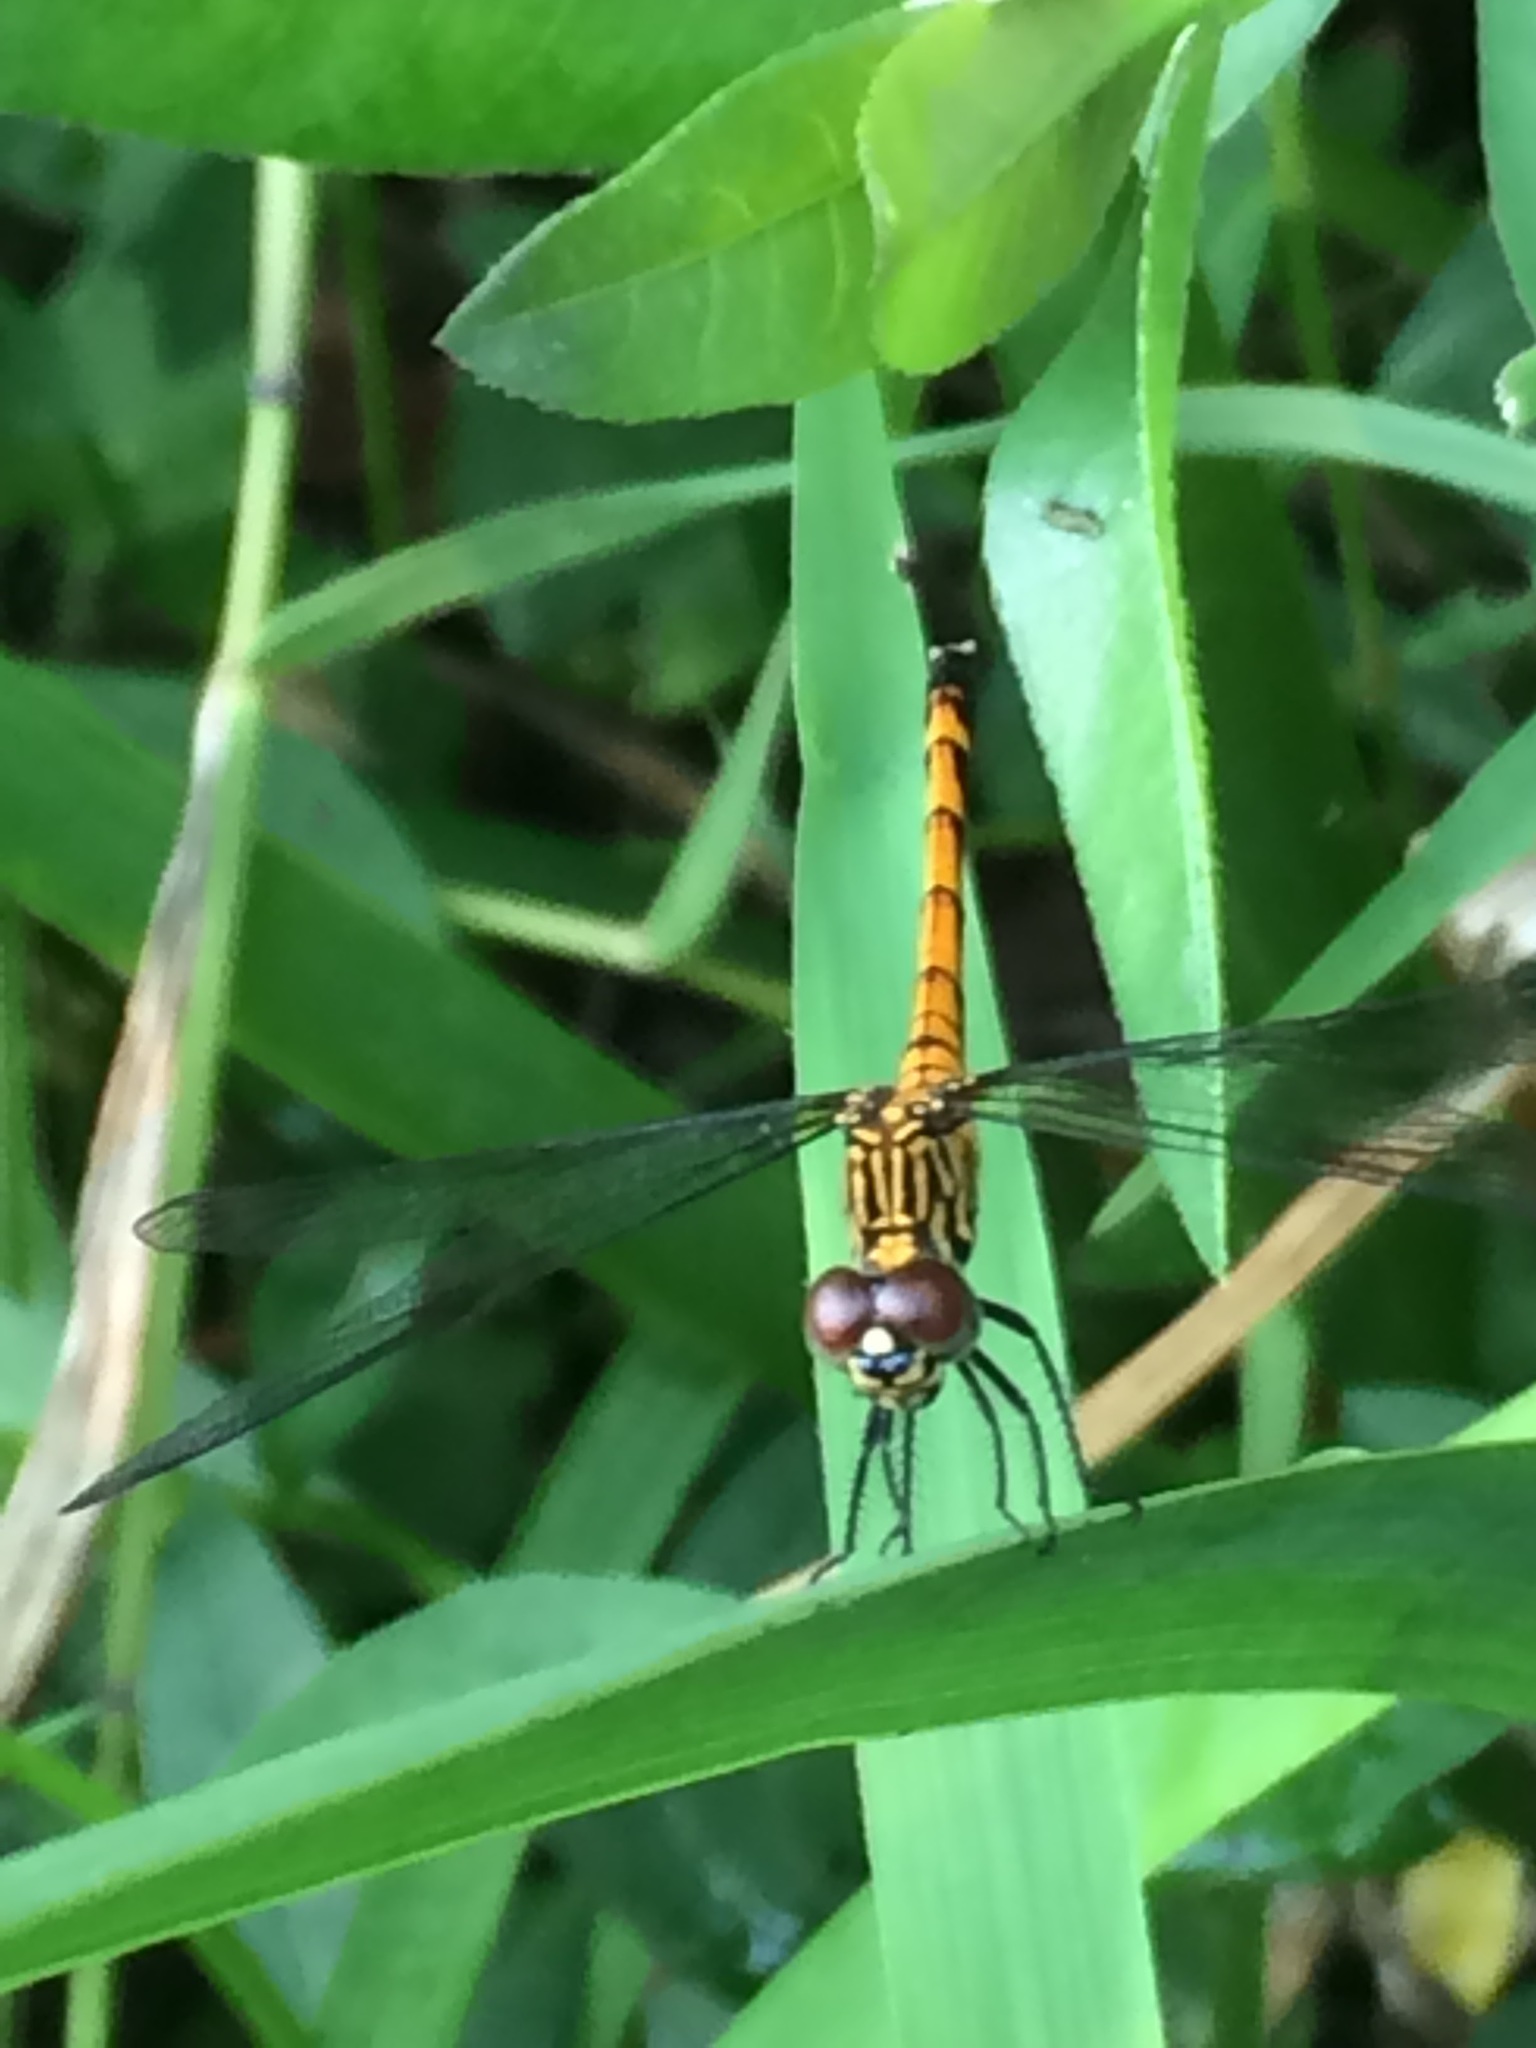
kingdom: Animalia
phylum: Arthropoda
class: Insecta
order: Odonata
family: Libellulidae
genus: Erythrodiplax
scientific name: Erythrodiplax berenice
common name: Seaside dragonlet
